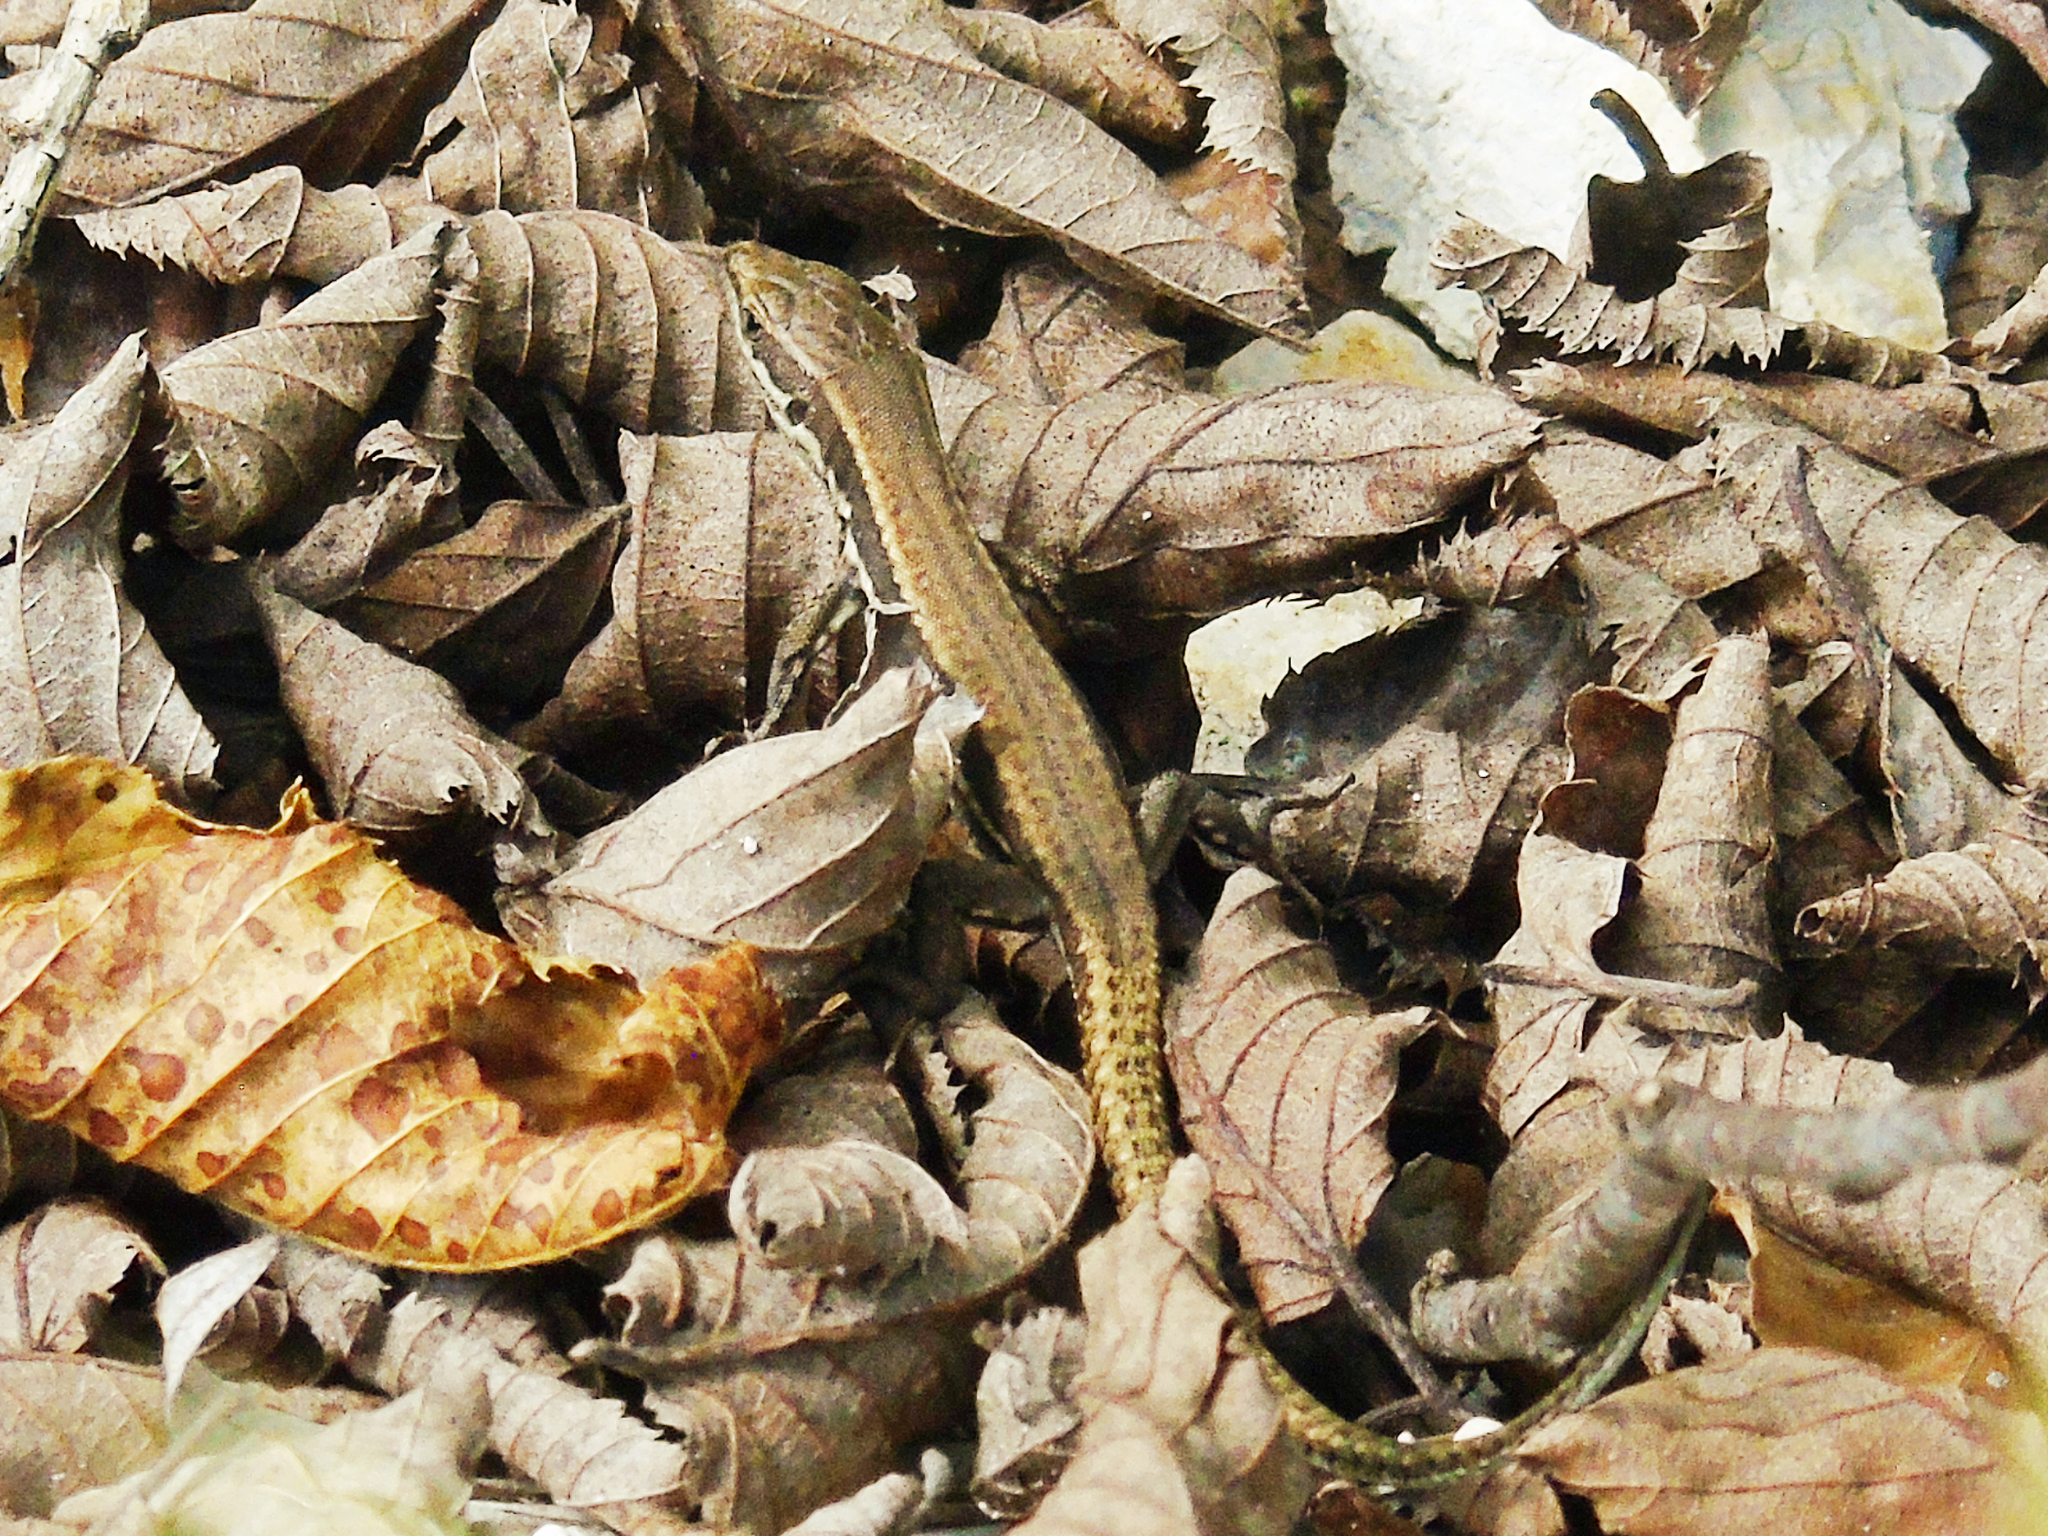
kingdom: Animalia
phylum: Chordata
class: Squamata
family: Lacertidae
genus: Podarcis
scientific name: Podarcis muralis
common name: Common wall lizard
